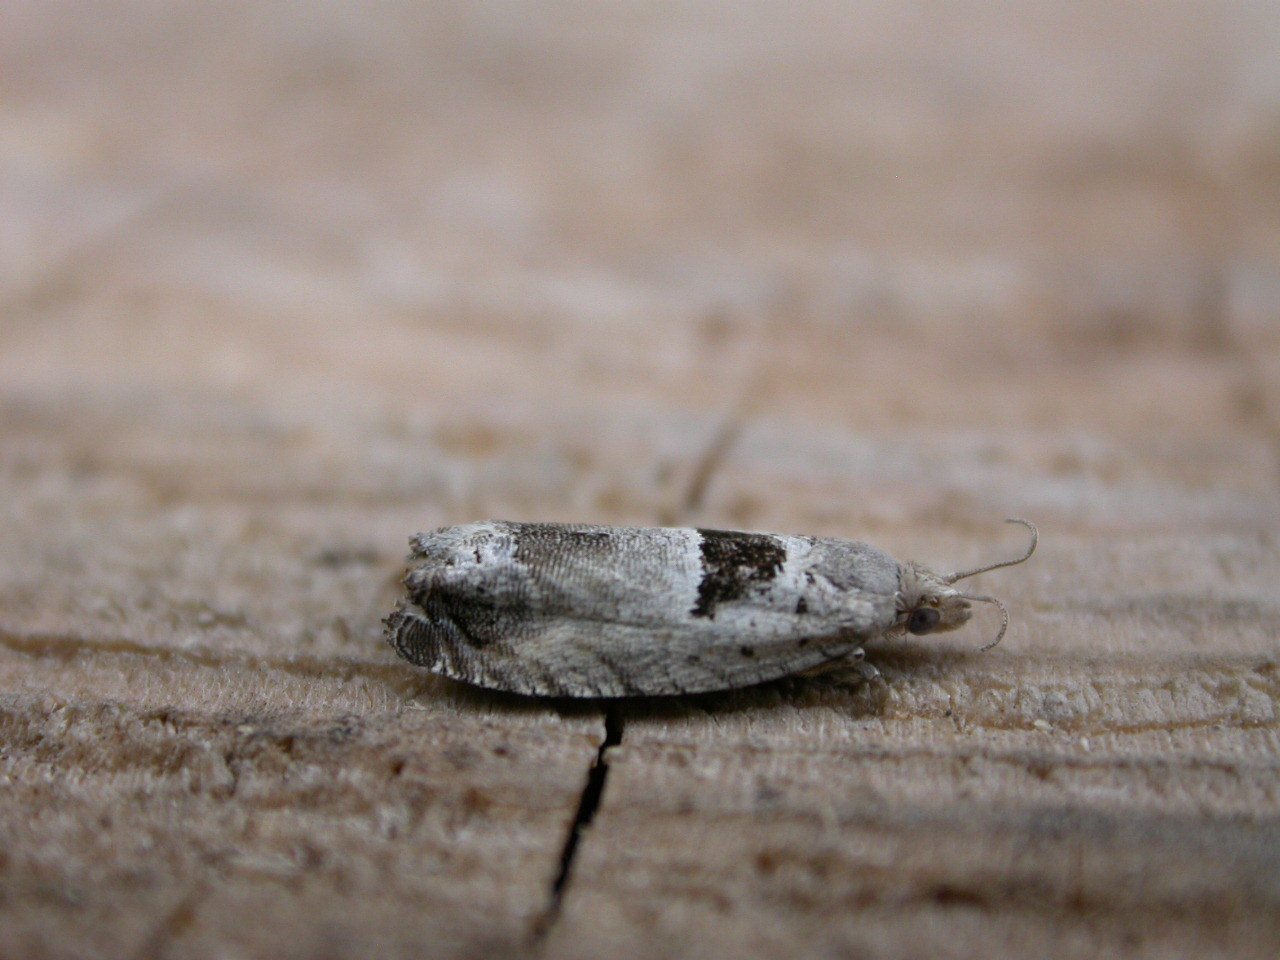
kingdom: Animalia
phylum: Arthropoda
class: Insecta
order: Lepidoptera
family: Tortricidae
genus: Epinotia
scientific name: Epinotia ramella
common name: Small birch bell
